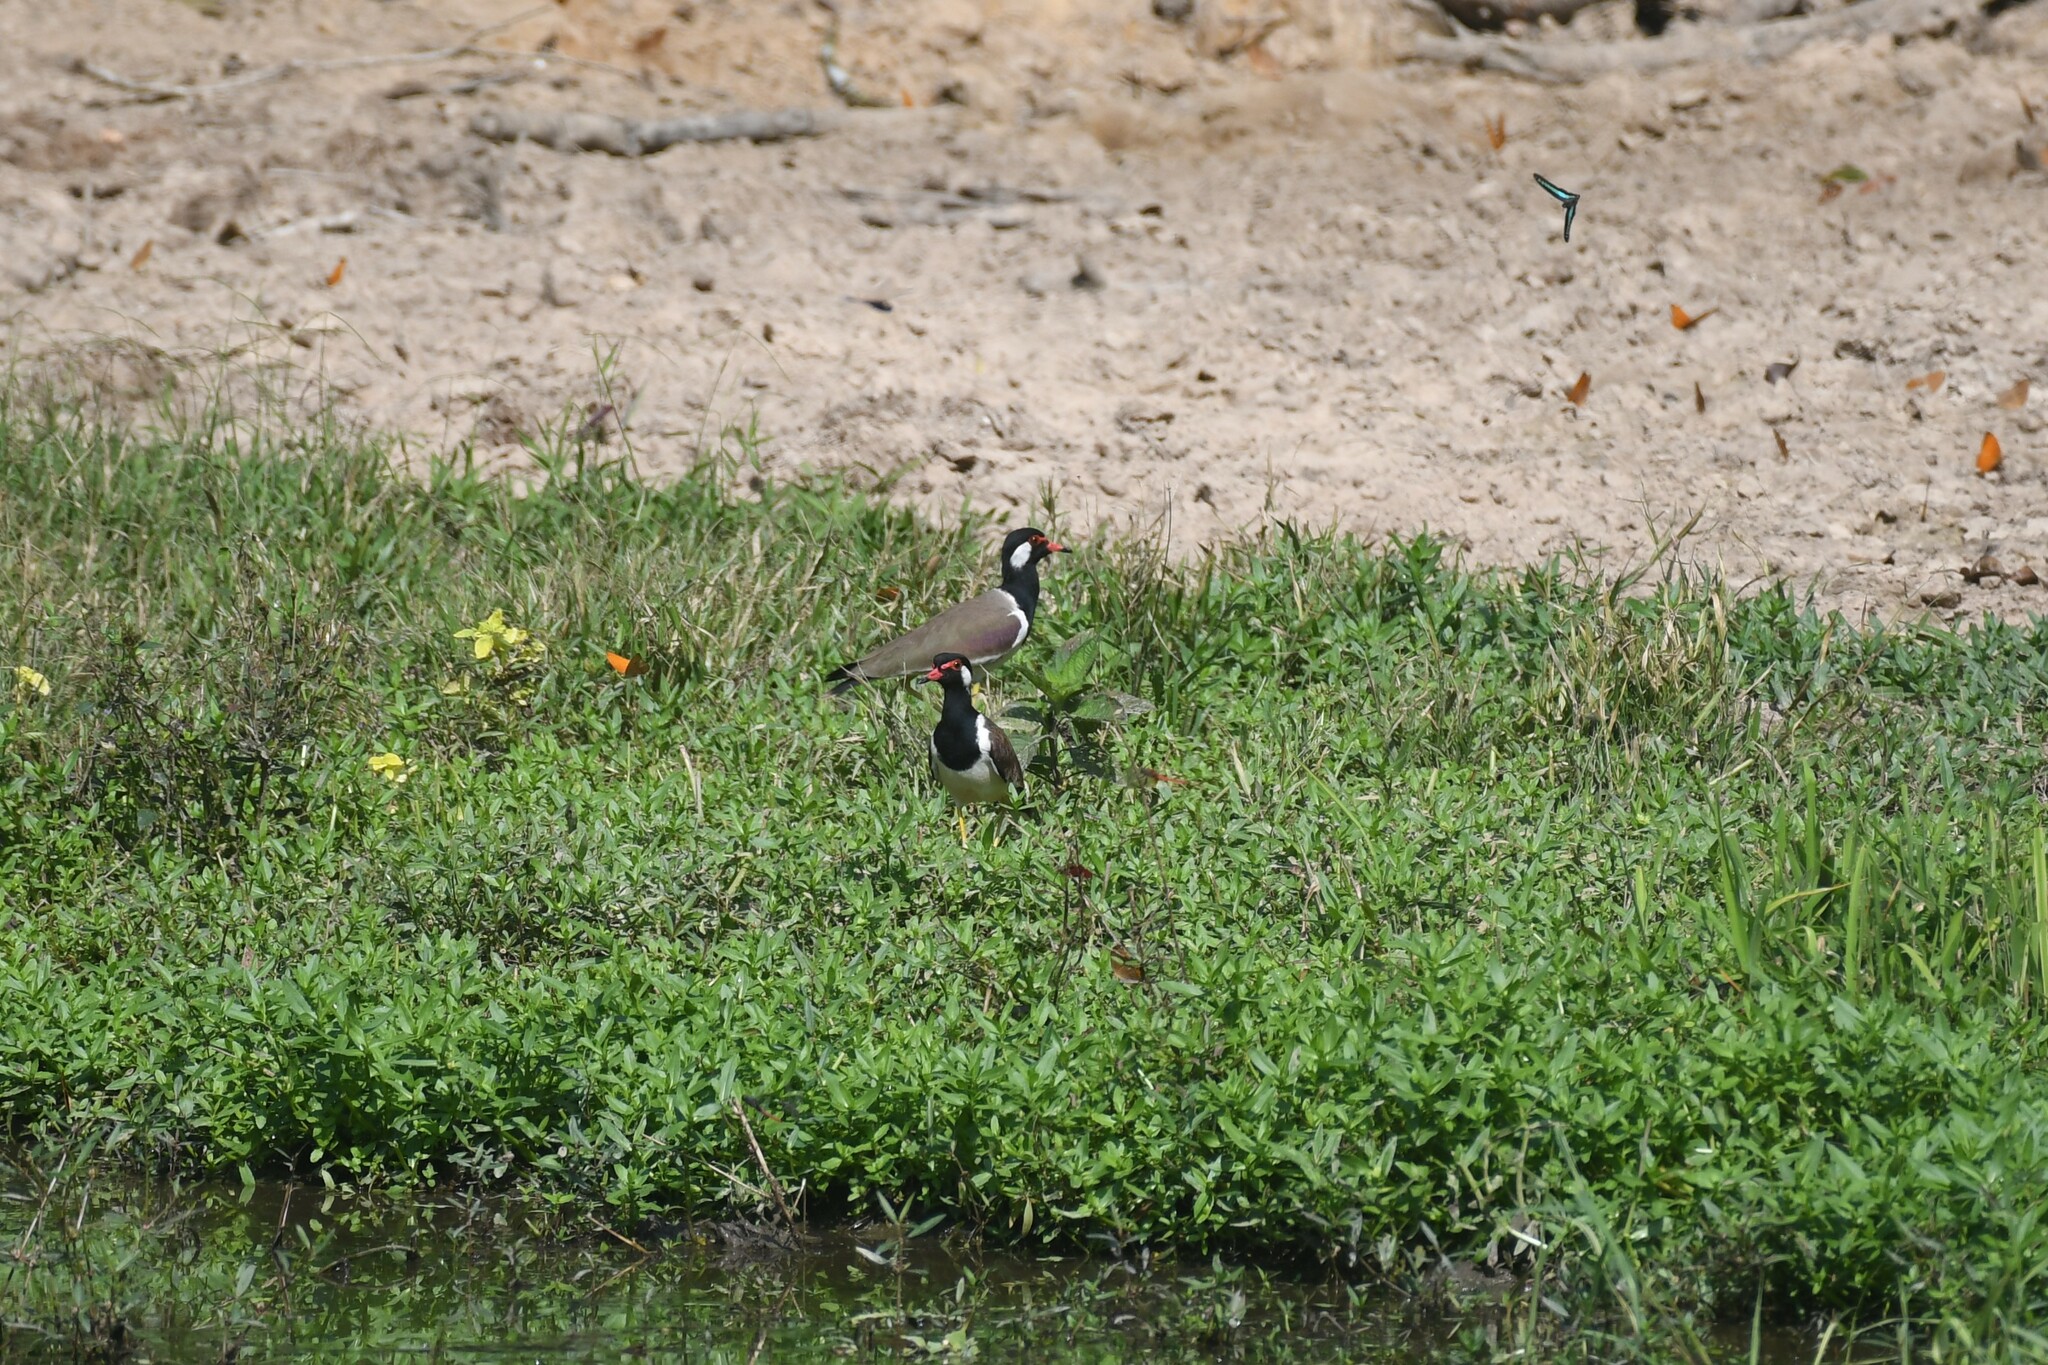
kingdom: Animalia
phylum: Chordata
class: Aves
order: Charadriiformes
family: Charadriidae
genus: Vanellus
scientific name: Vanellus indicus
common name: Red-wattled lapwing
